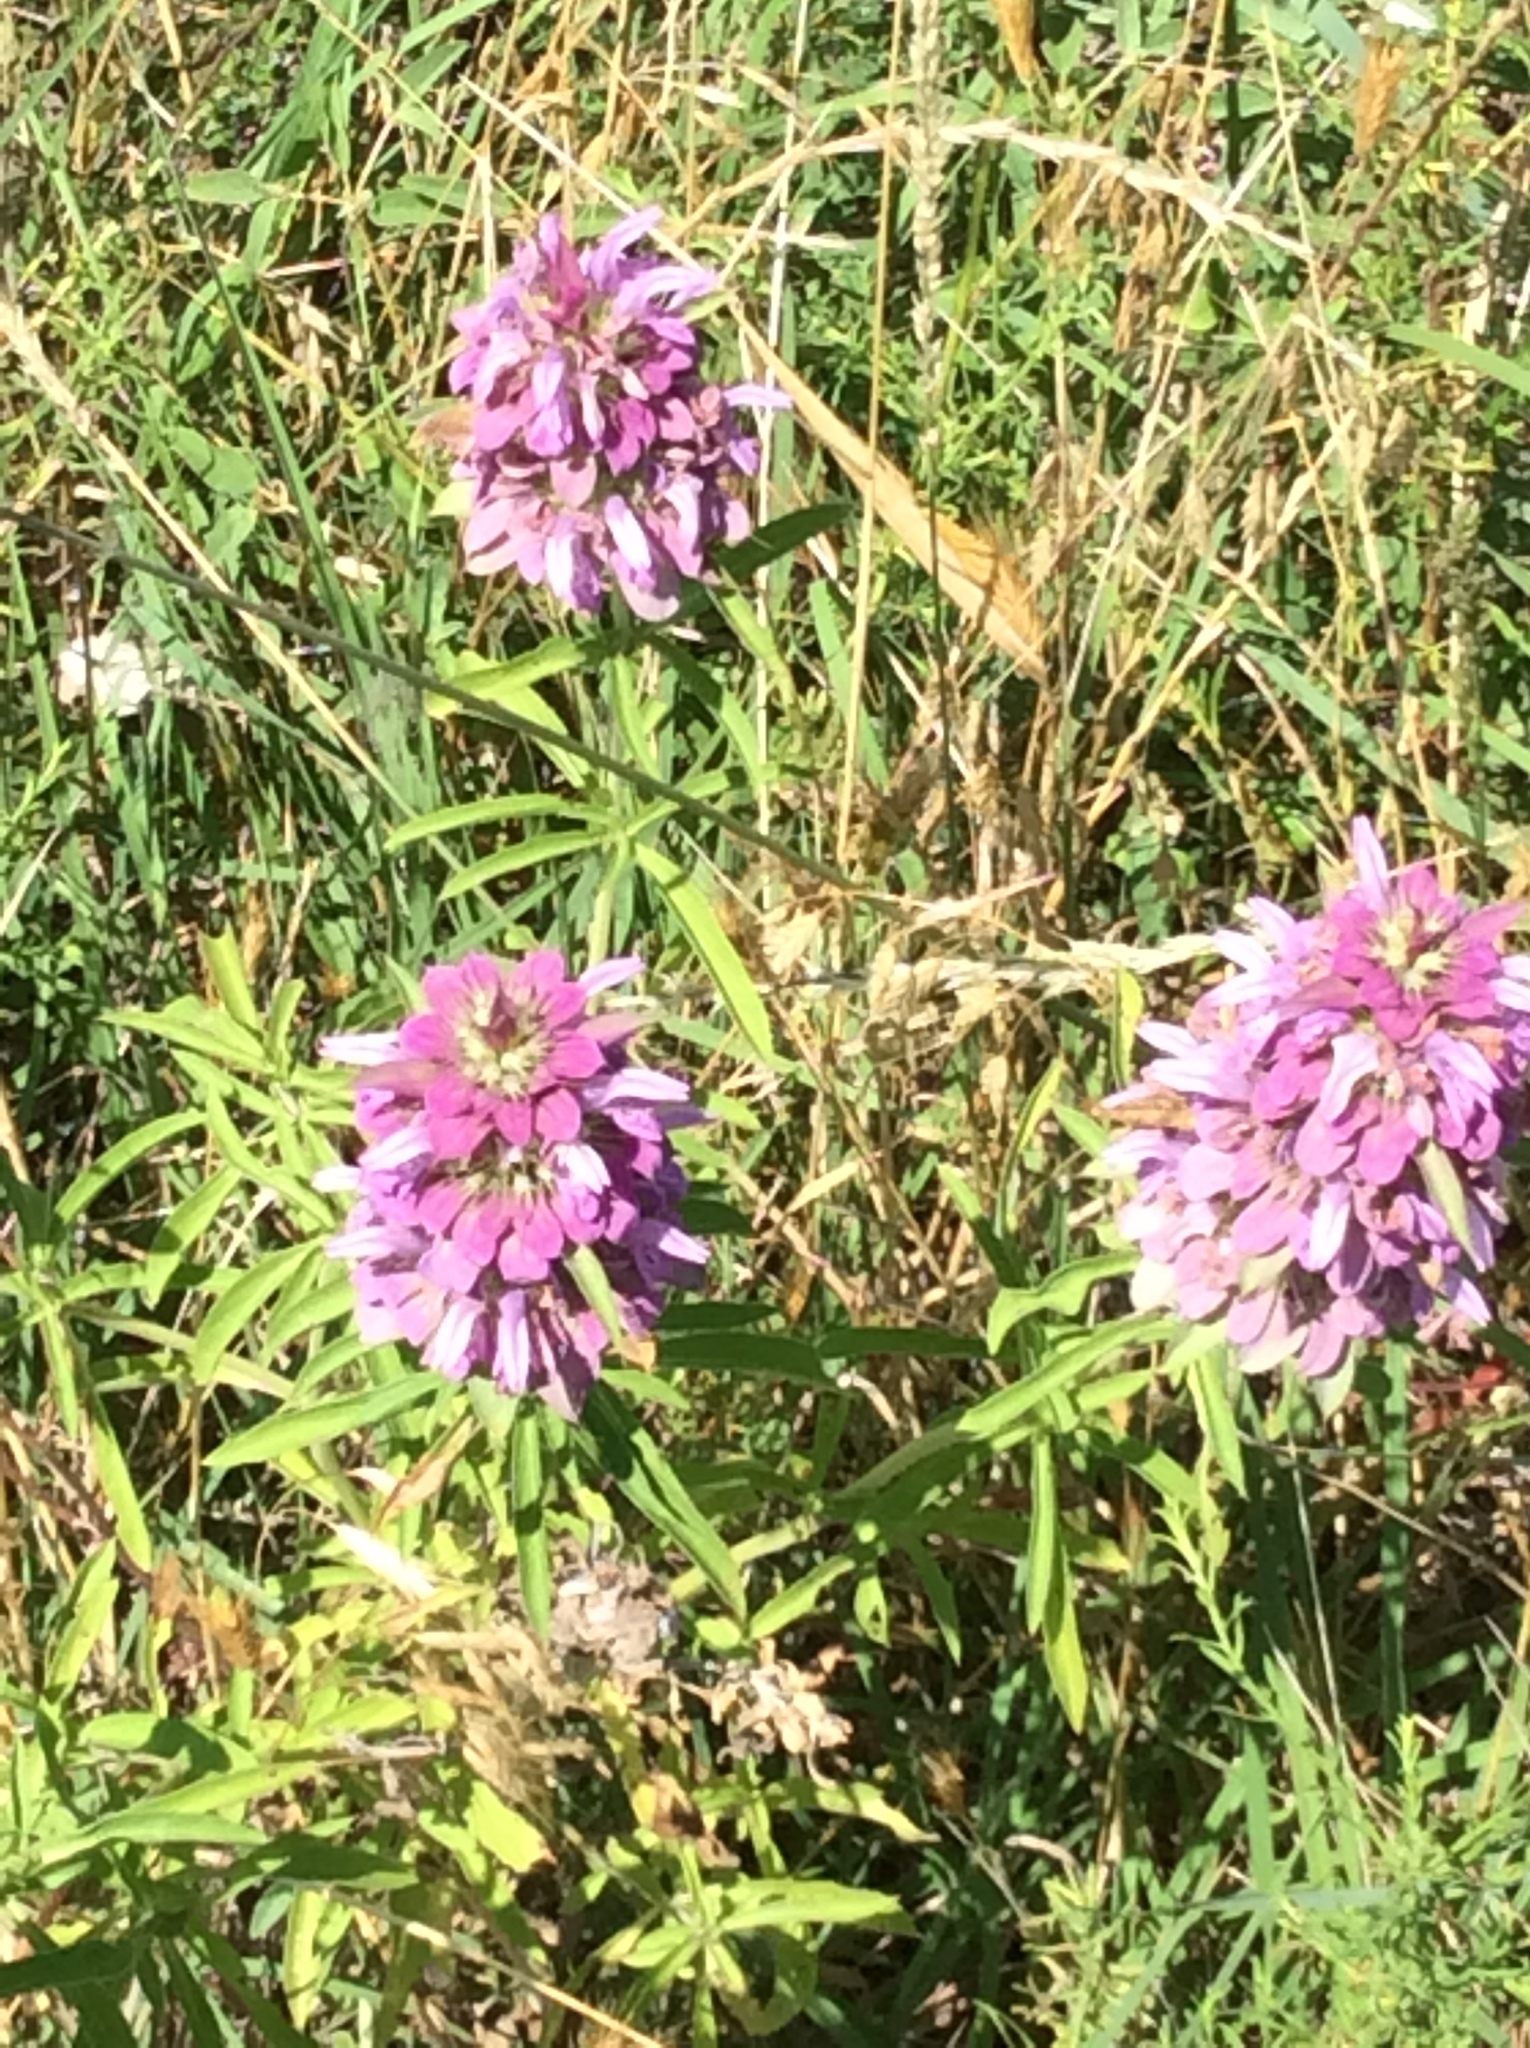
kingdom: Plantae
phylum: Tracheophyta
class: Magnoliopsida
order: Lamiales
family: Lamiaceae
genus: Monarda
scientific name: Monarda citriodora
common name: Lemon beebalm
